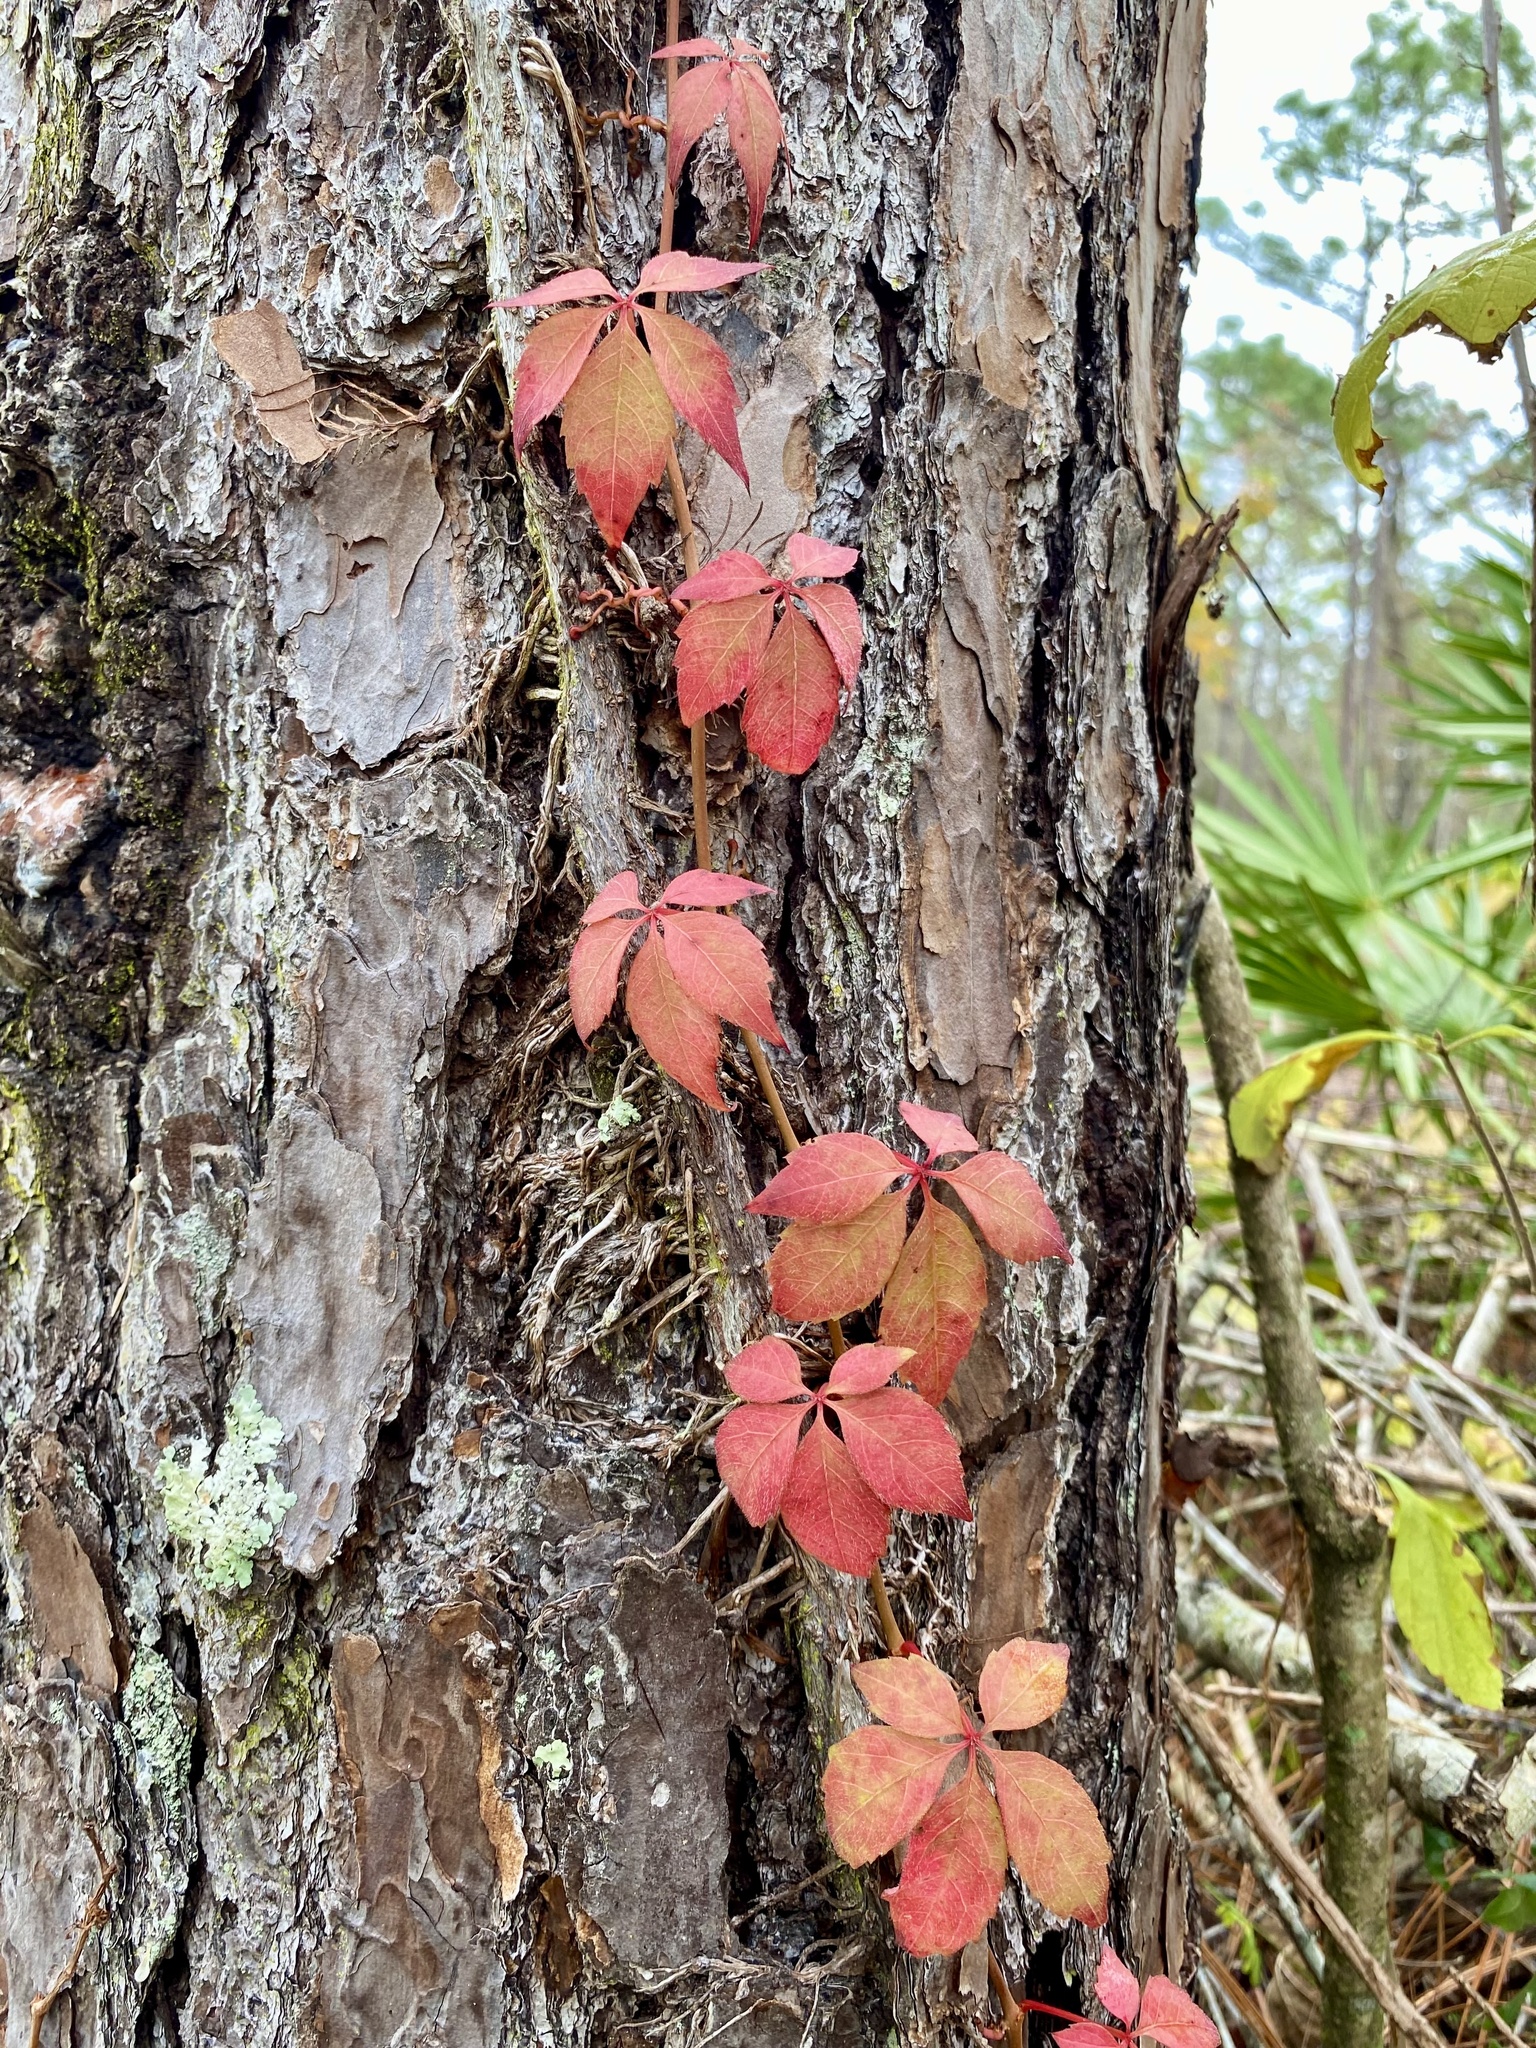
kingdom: Plantae
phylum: Tracheophyta
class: Magnoliopsida
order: Vitales
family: Vitaceae
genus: Parthenocissus
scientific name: Parthenocissus quinquefolia
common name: Virginia-creeper
